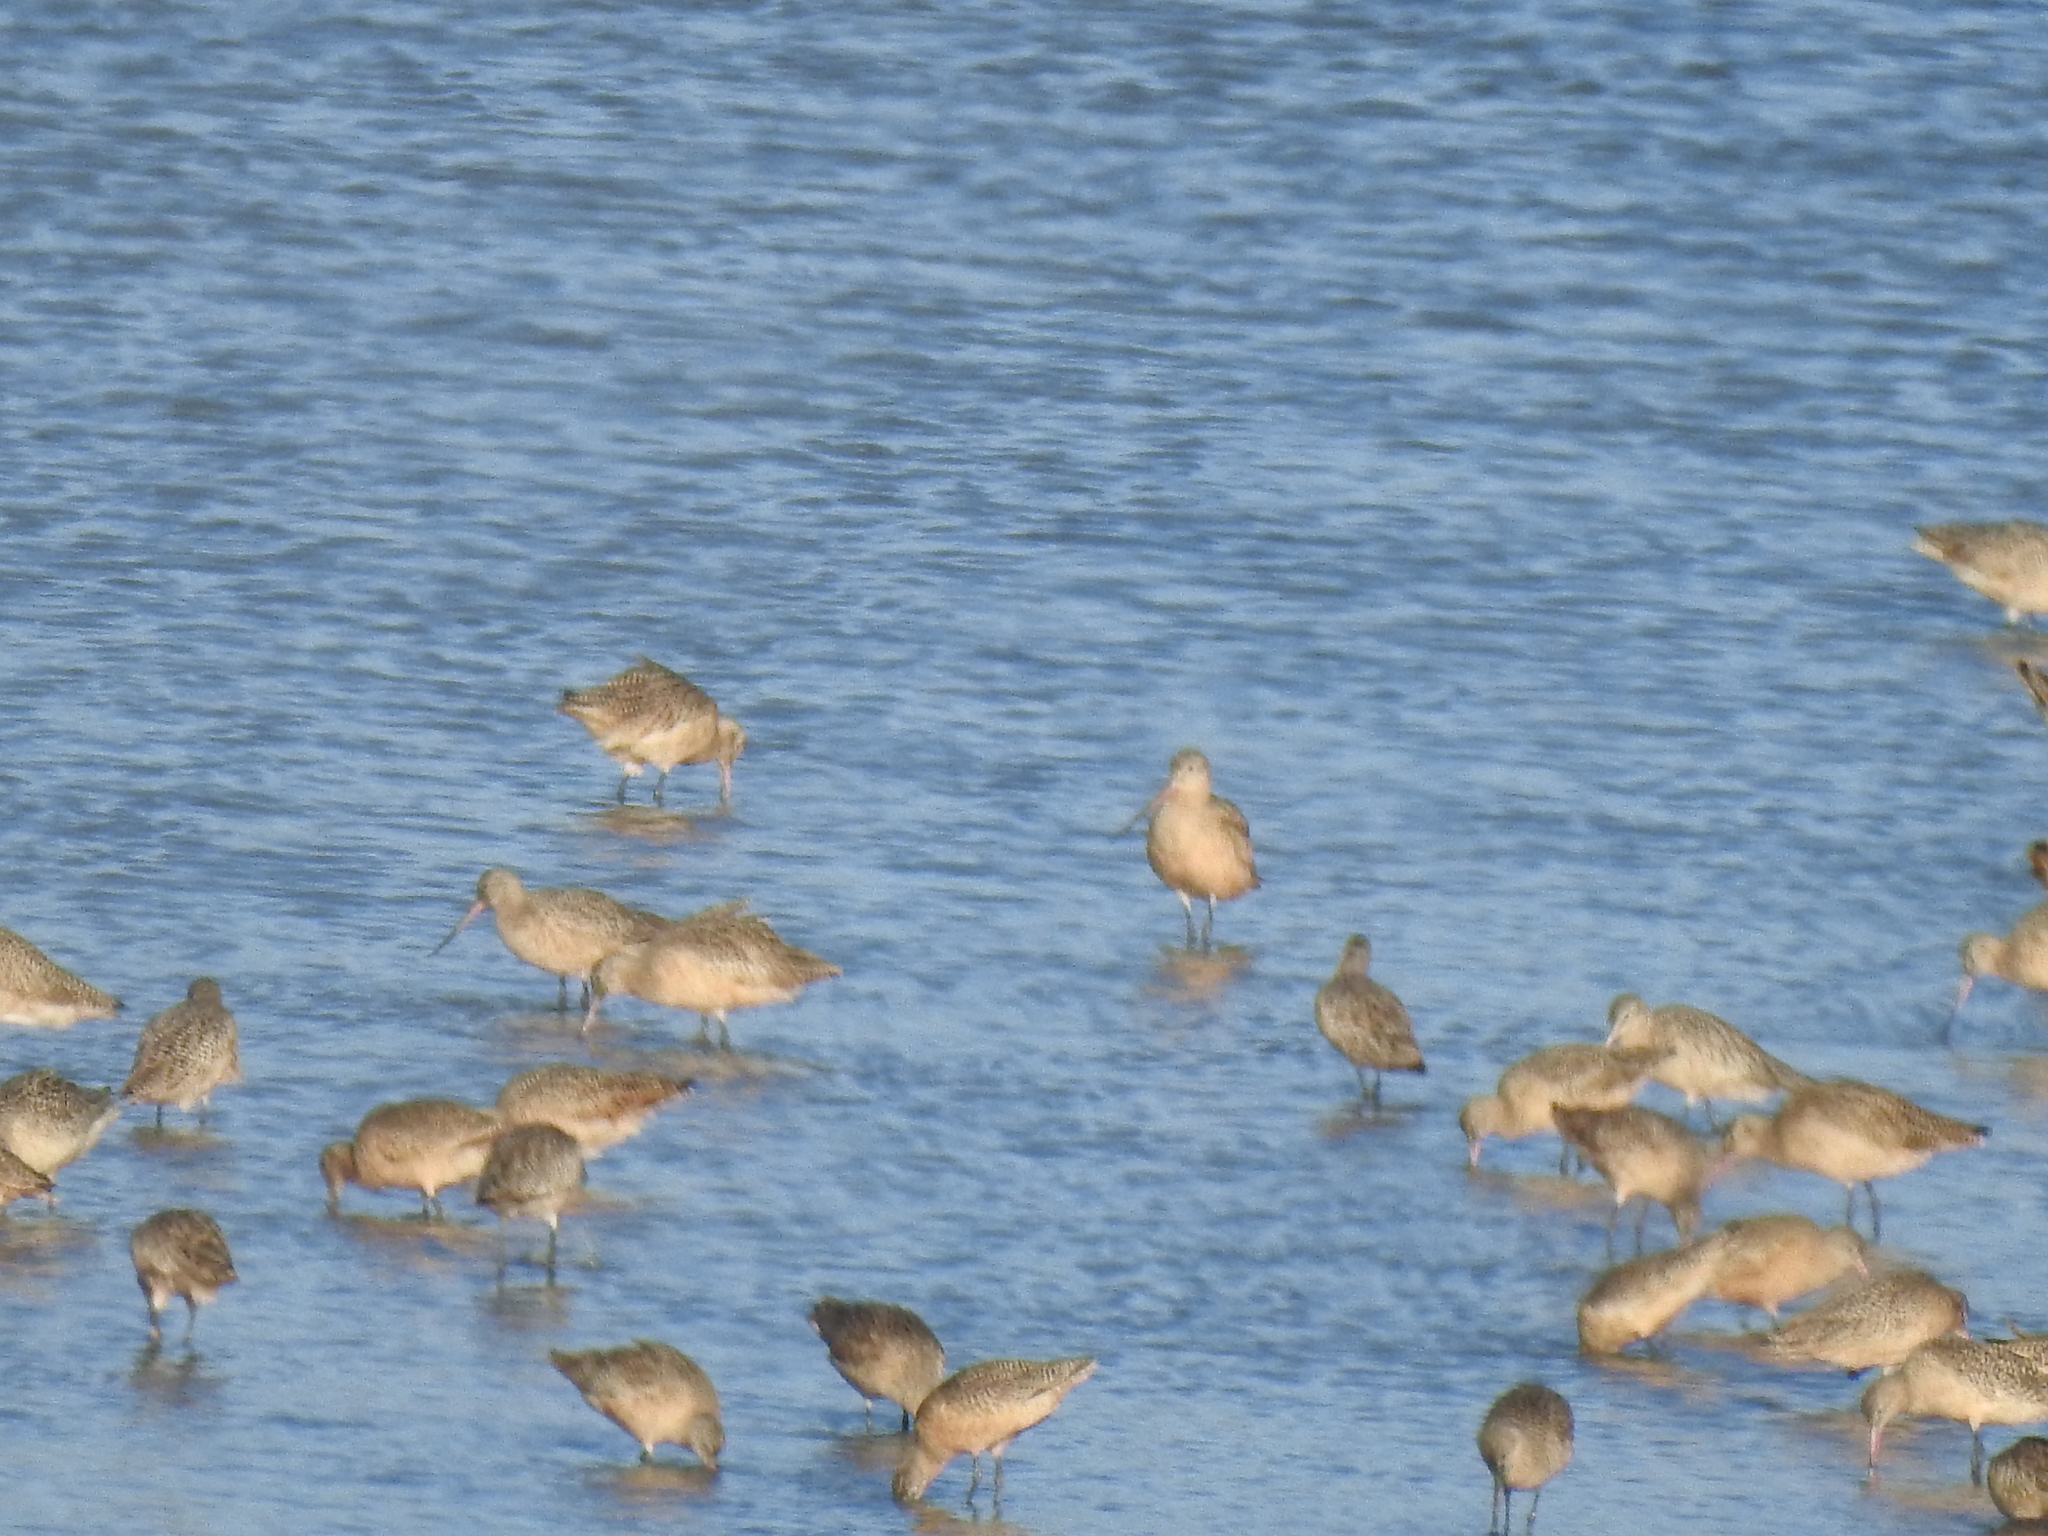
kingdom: Animalia
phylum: Chordata
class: Aves
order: Charadriiformes
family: Scolopacidae
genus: Limosa
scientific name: Limosa fedoa
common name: Marbled godwit
